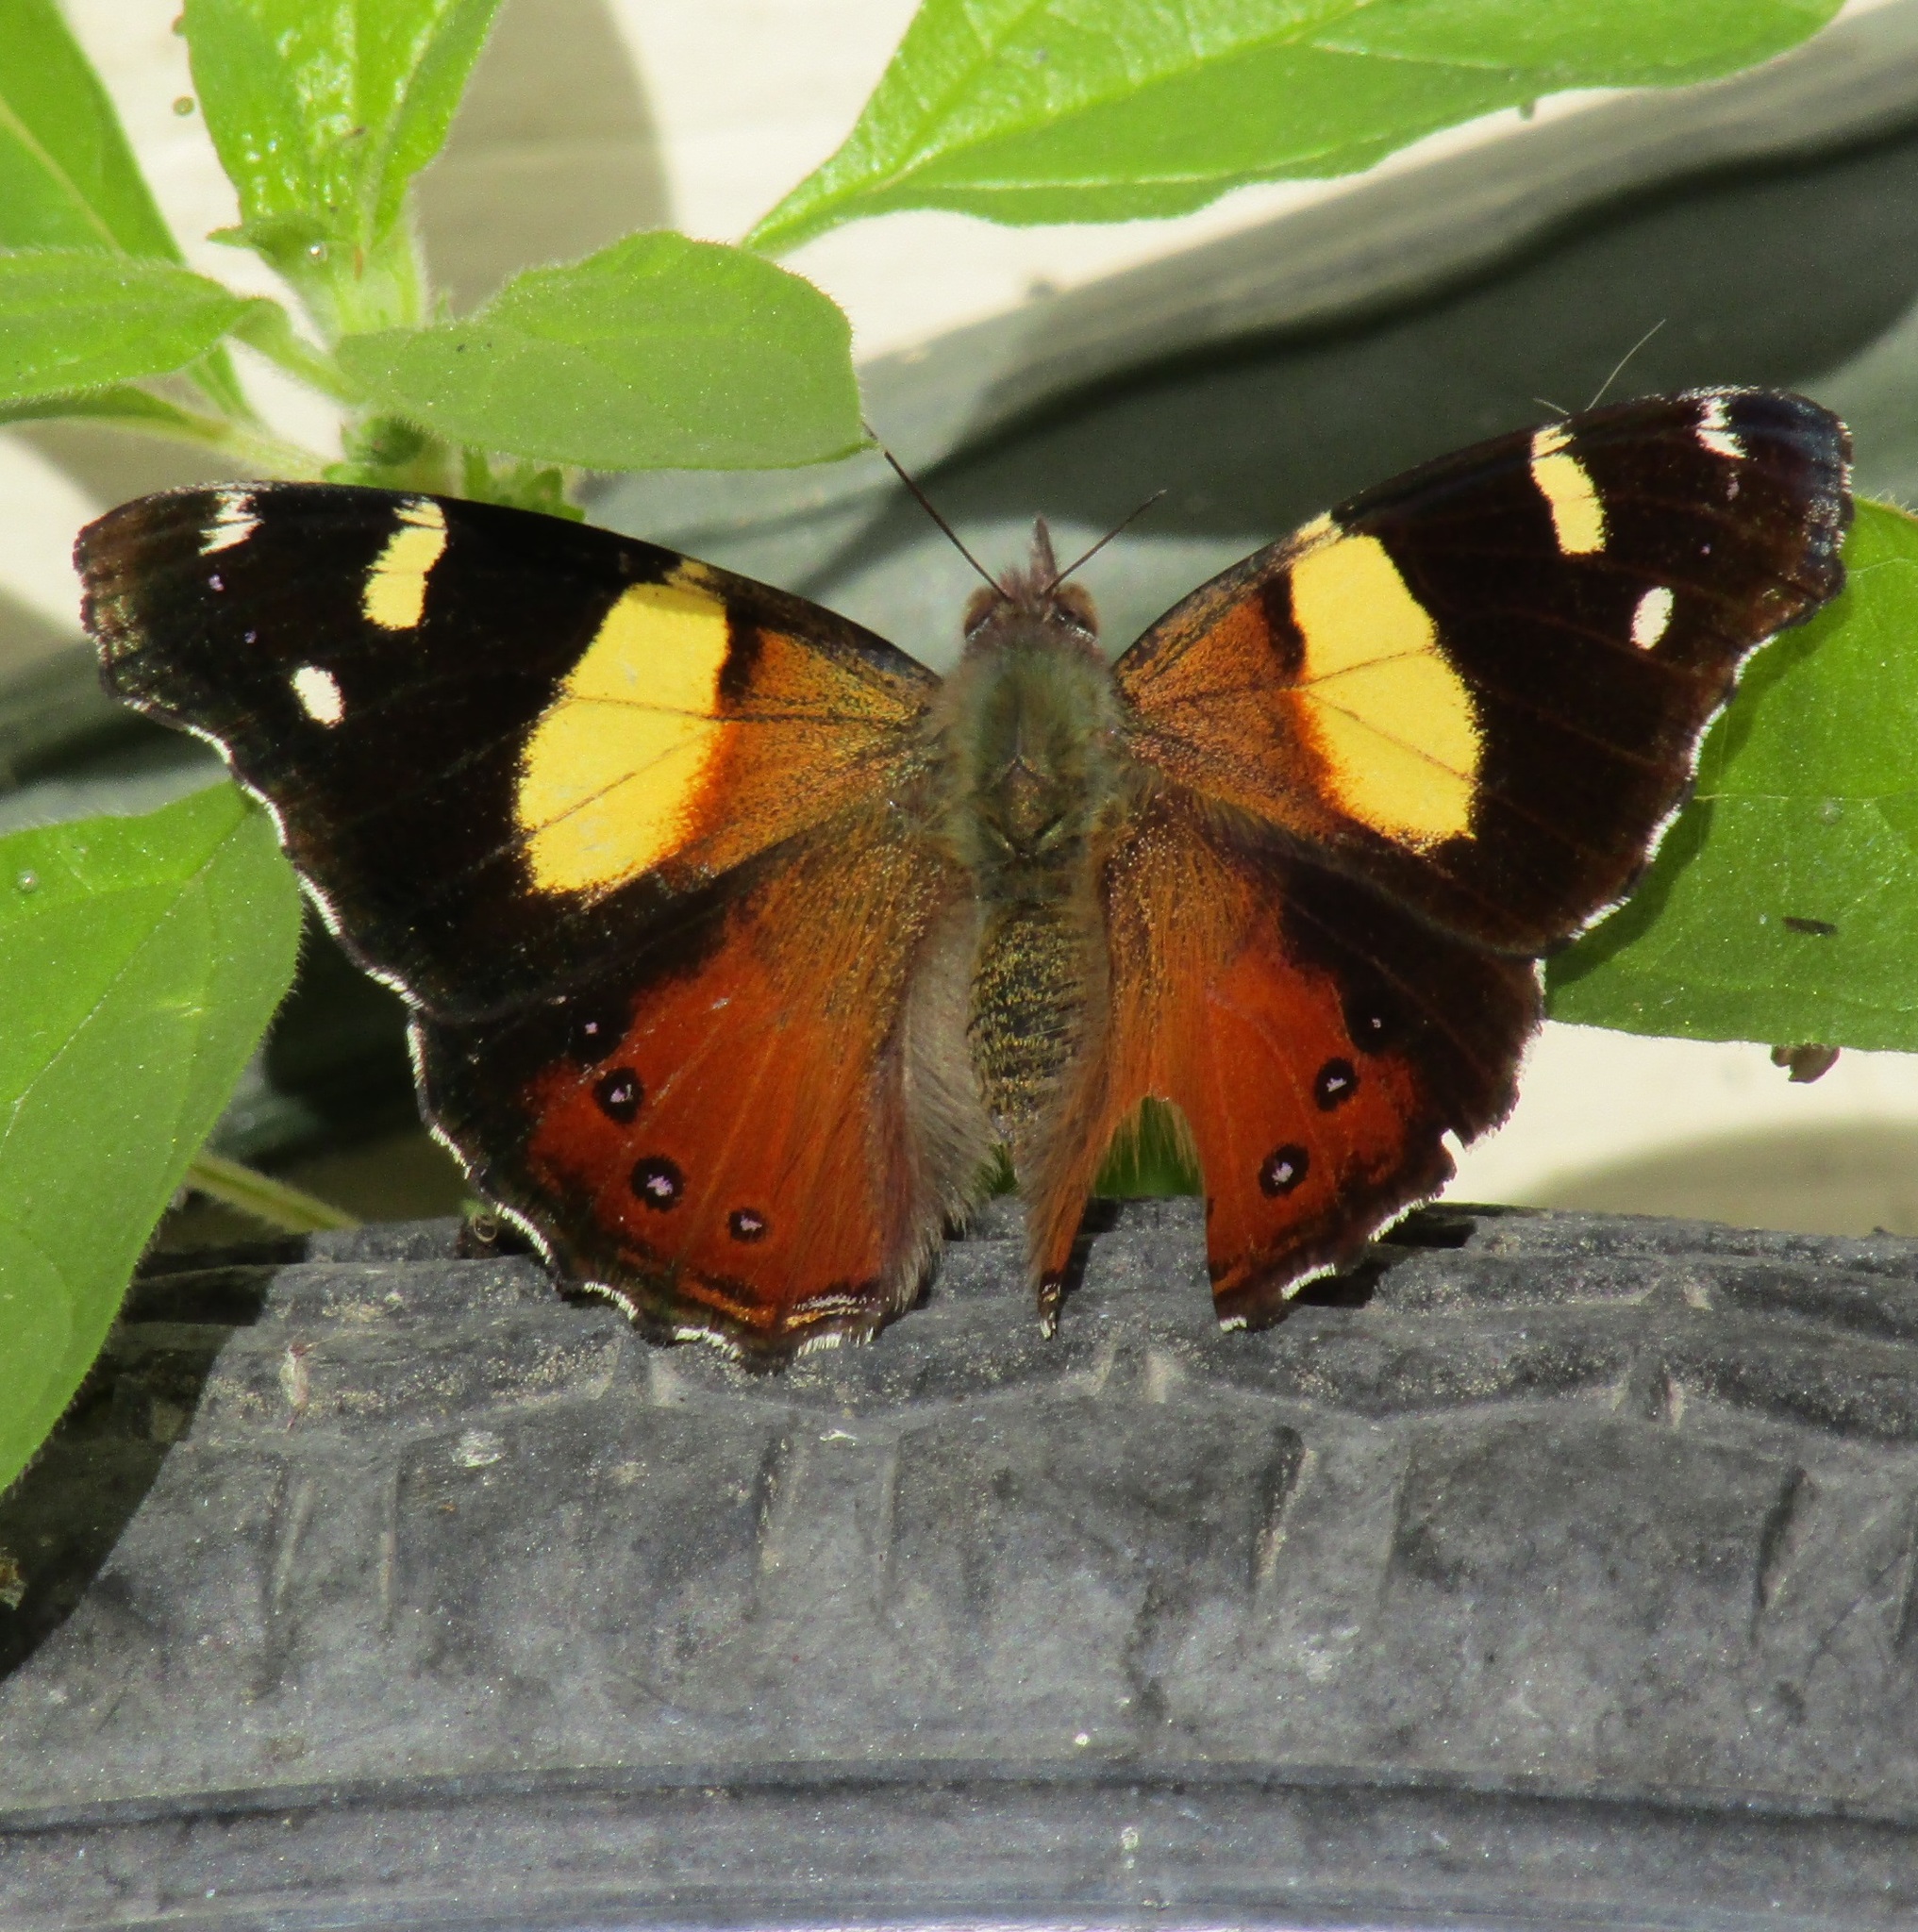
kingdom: Animalia
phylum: Arthropoda
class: Insecta
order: Lepidoptera
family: Nymphalidae
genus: Vanessa
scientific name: Vanessa itea
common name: Yellow admiral
